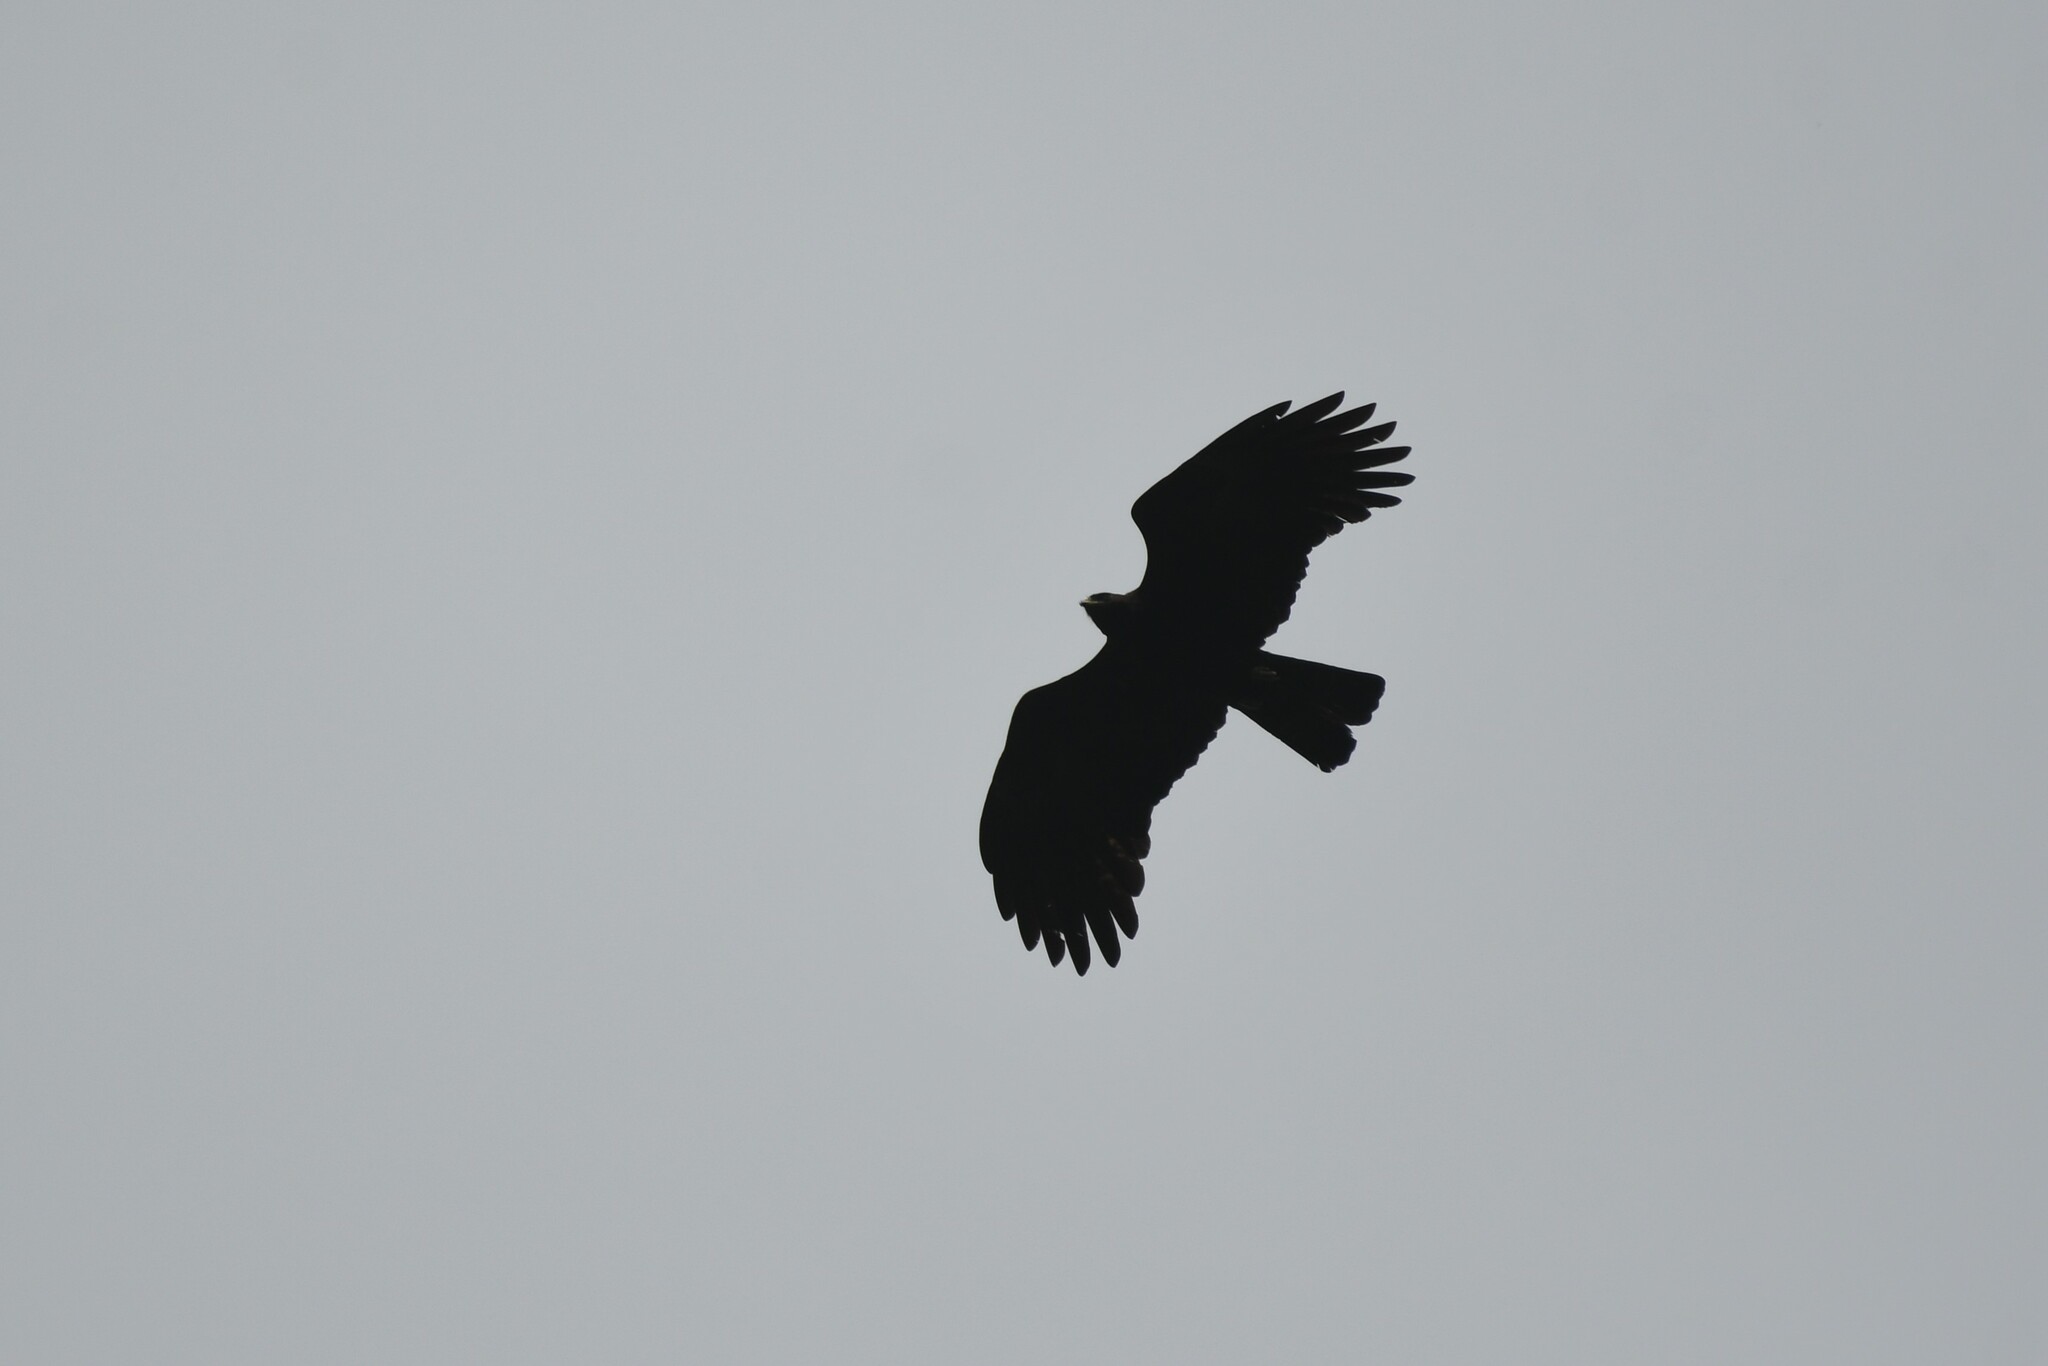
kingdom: Animalia
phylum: Chordata
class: Aves
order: Accipitriformes
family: Accipitridae
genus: Ictinaetus
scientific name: Ictinaetus malayensis
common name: Black eagle
